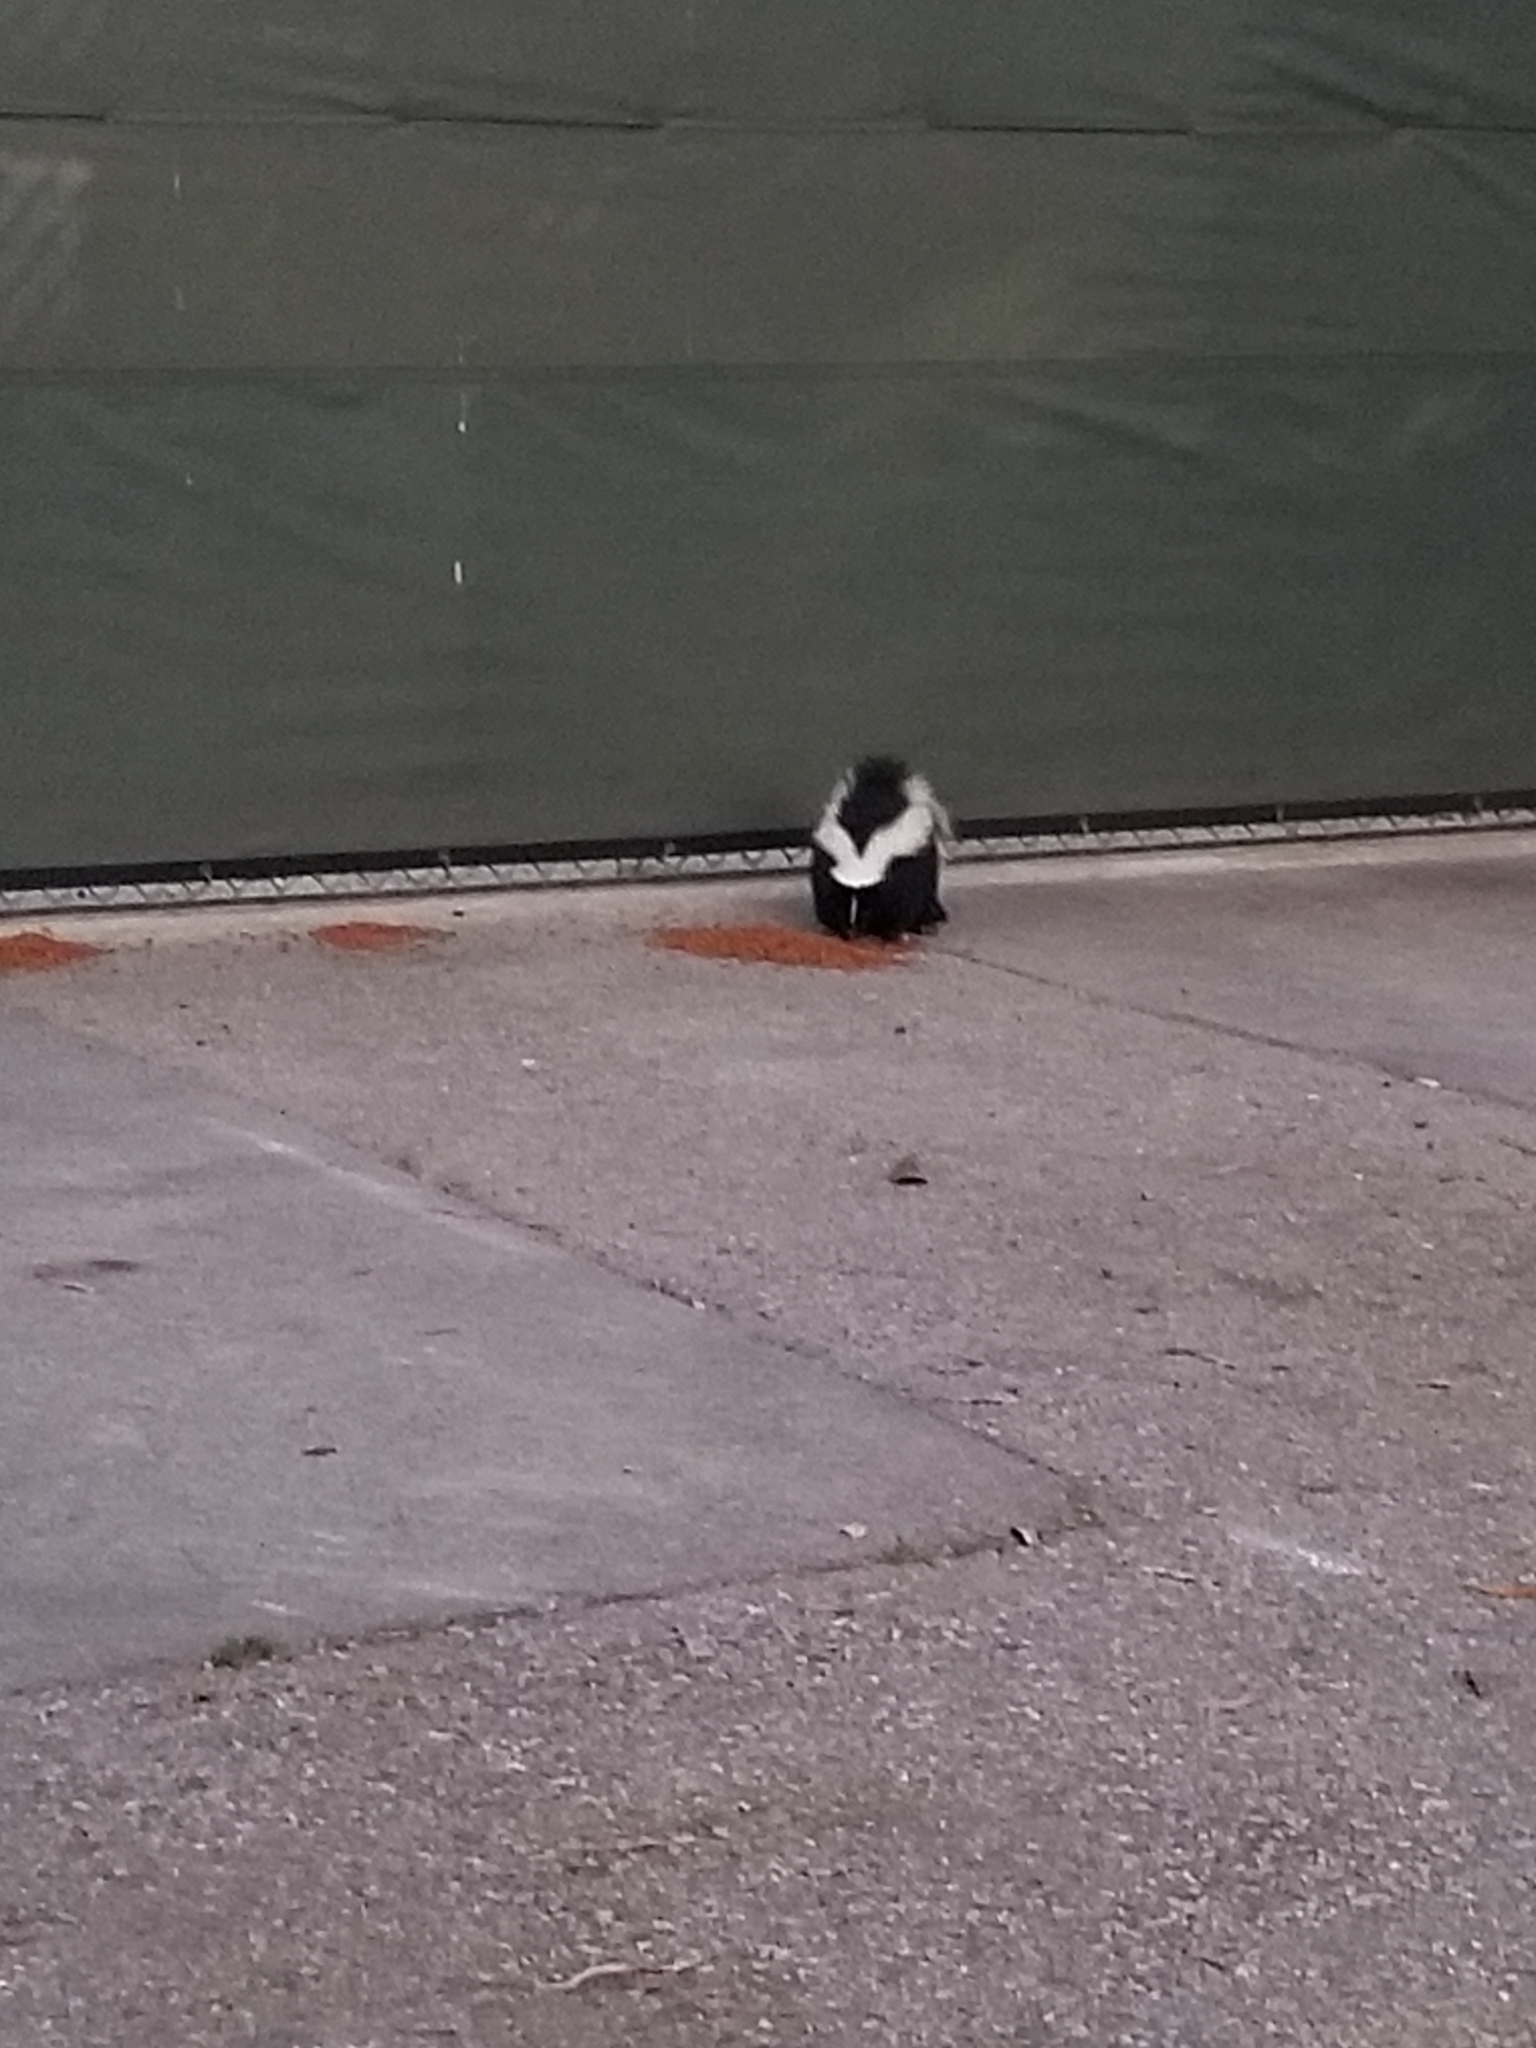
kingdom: Animalia
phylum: Chordata
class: Mammalia
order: Carnivora
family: Mephitidae
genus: Mephitis
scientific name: Mephitis mephitis
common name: Striped skunk
